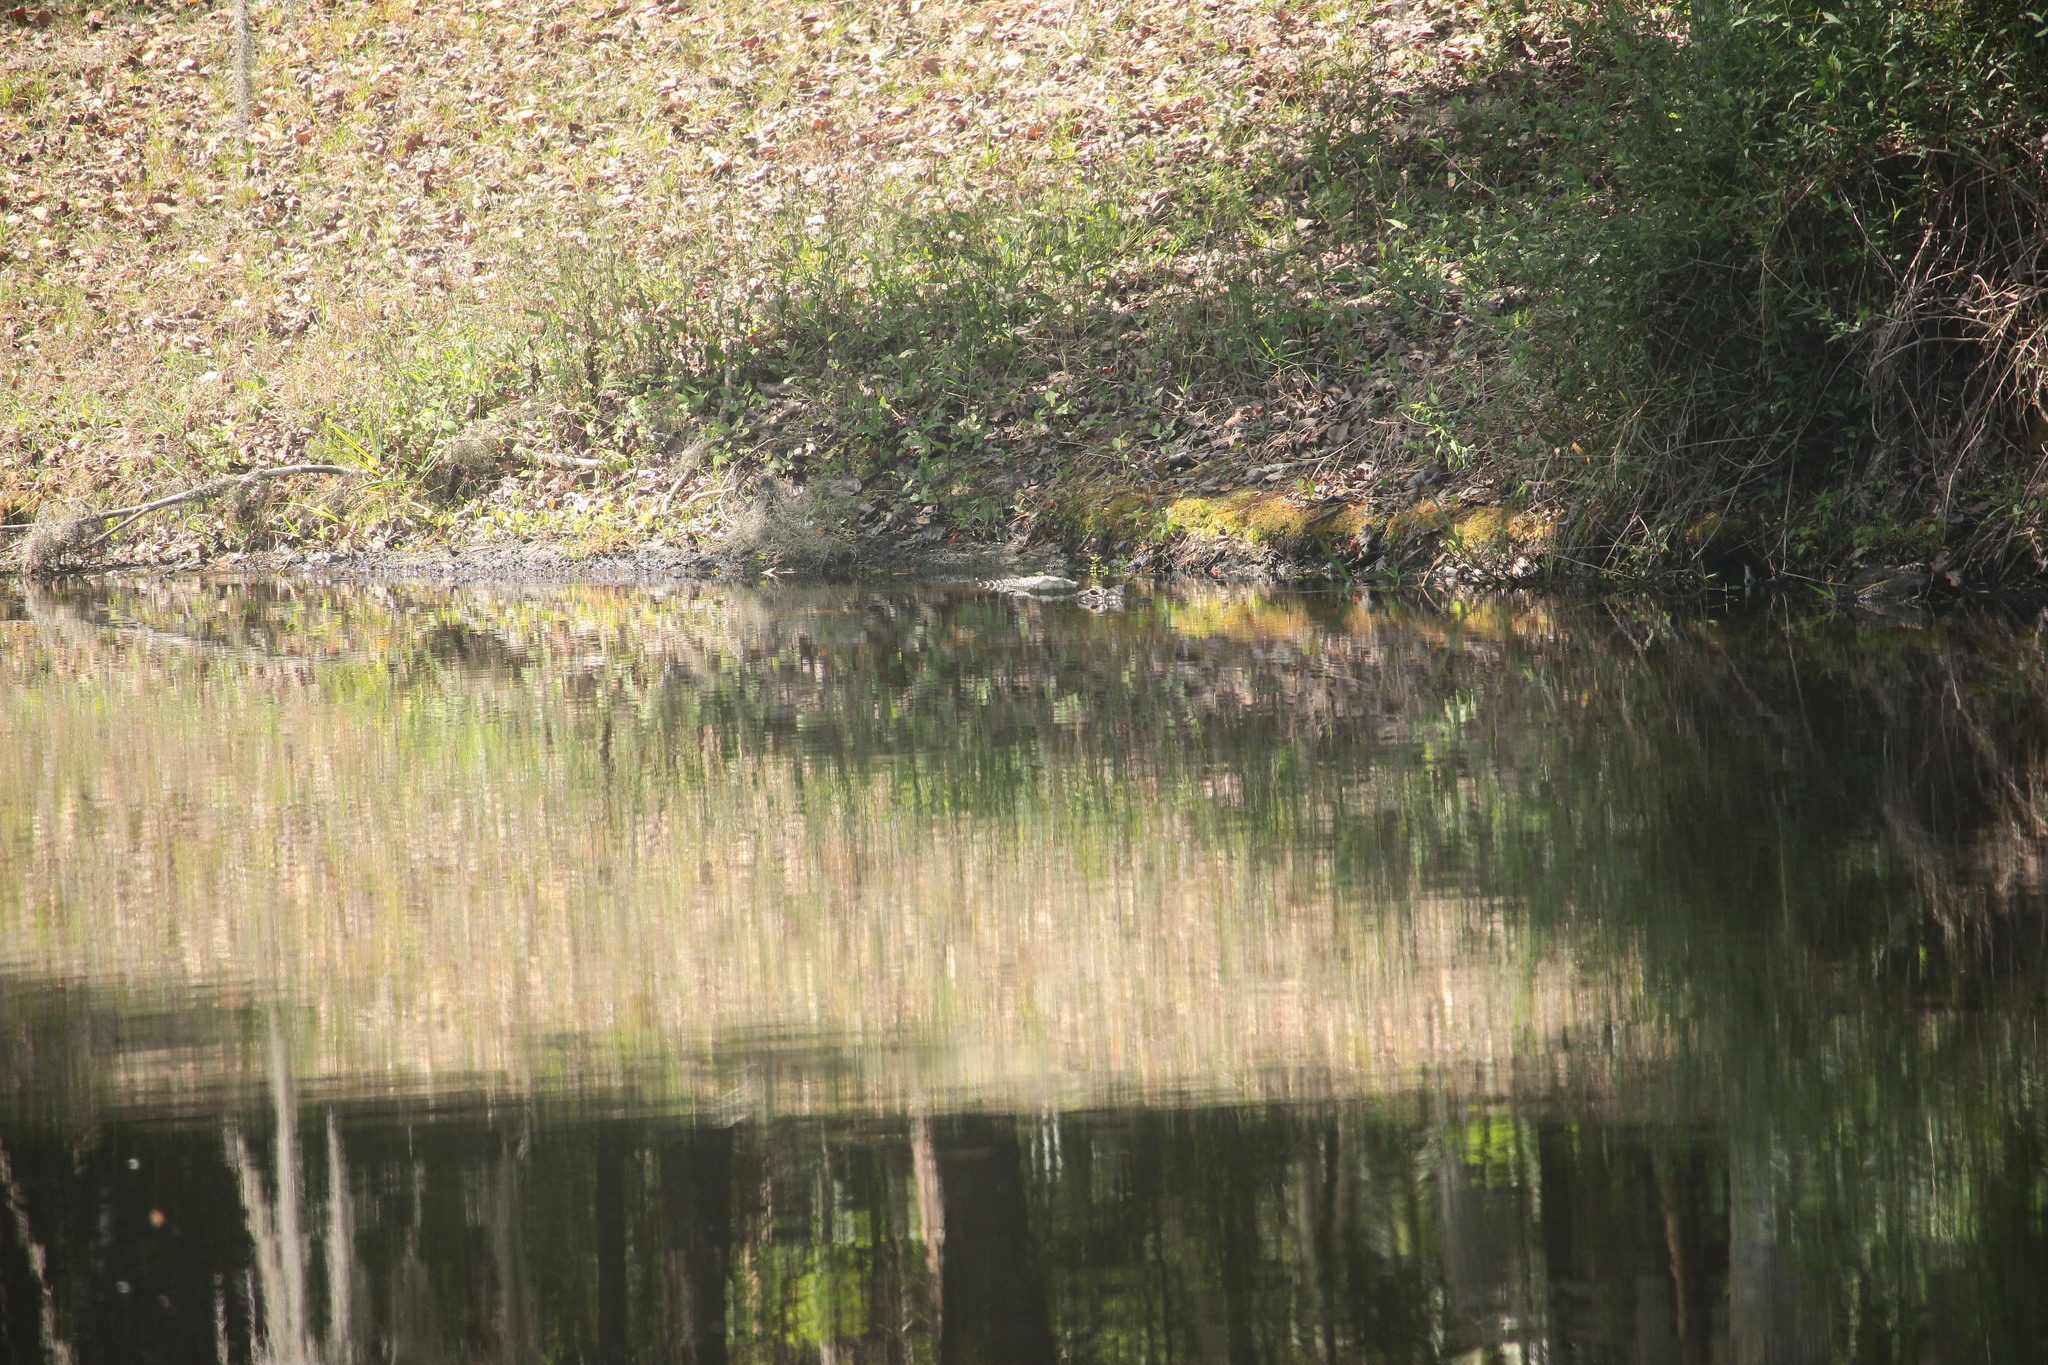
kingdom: Animalia
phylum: Chordata
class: Crocodylia
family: Alligatoridae
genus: Alligator
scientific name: Alligator mississippiensis
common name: American alligator
